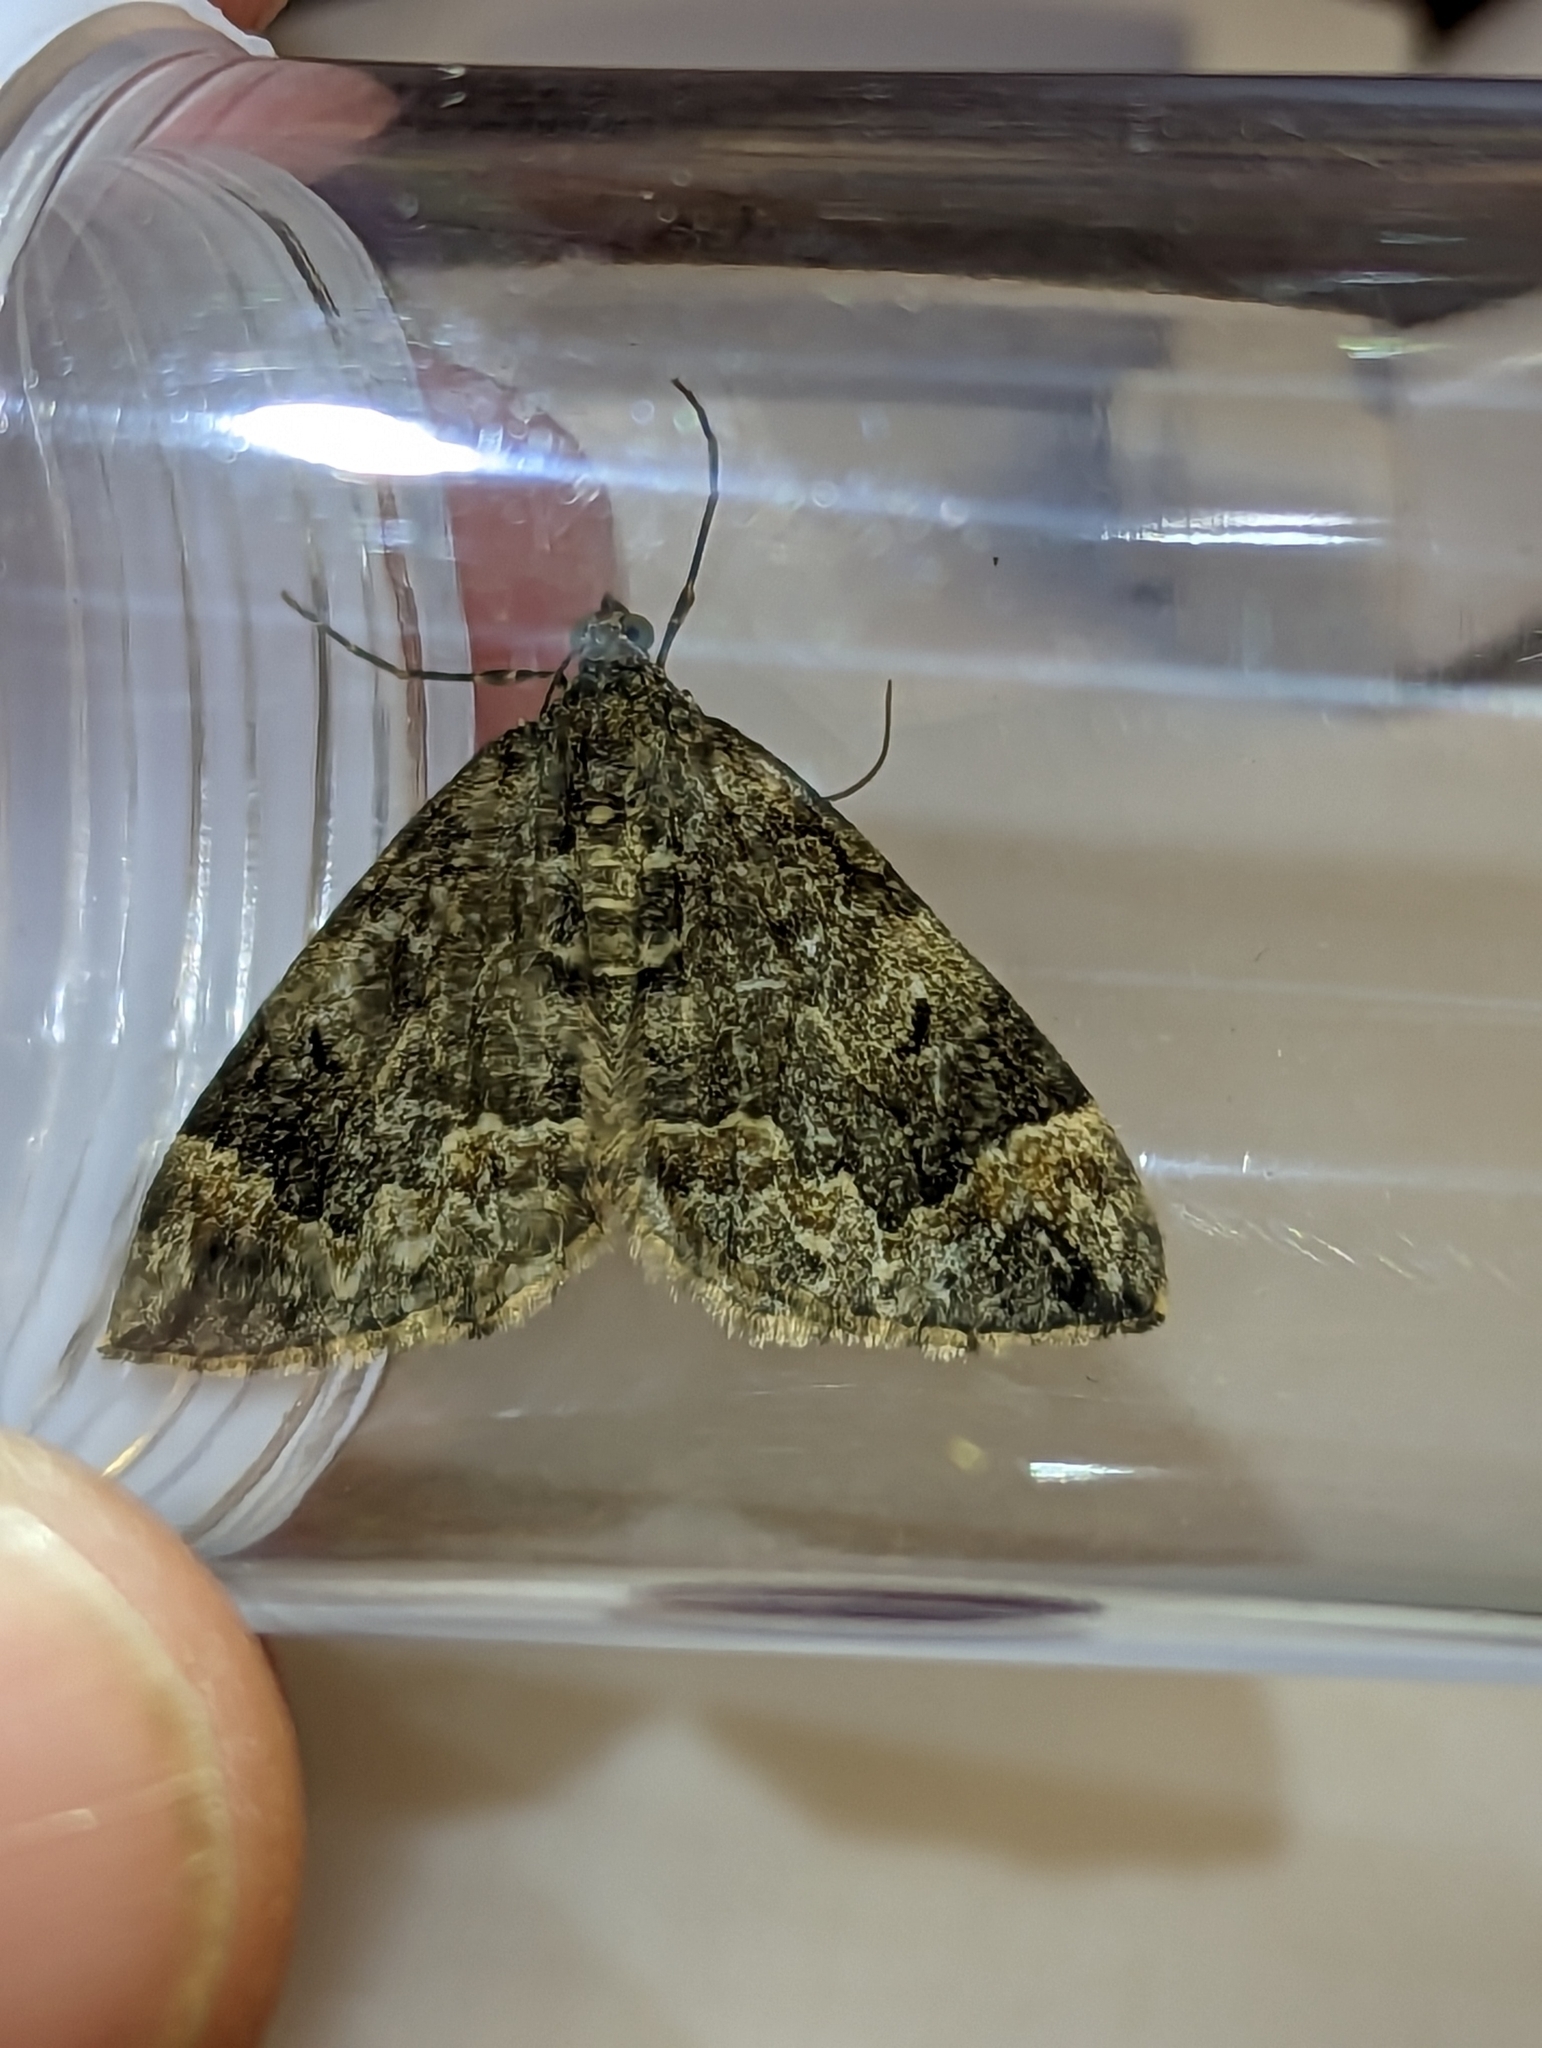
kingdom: Animalia
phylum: Arthropoda
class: Insecta
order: Lepidoptera
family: Geometridae
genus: Dysstroma
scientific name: Dysstroma truncata
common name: Common marbled carpet
